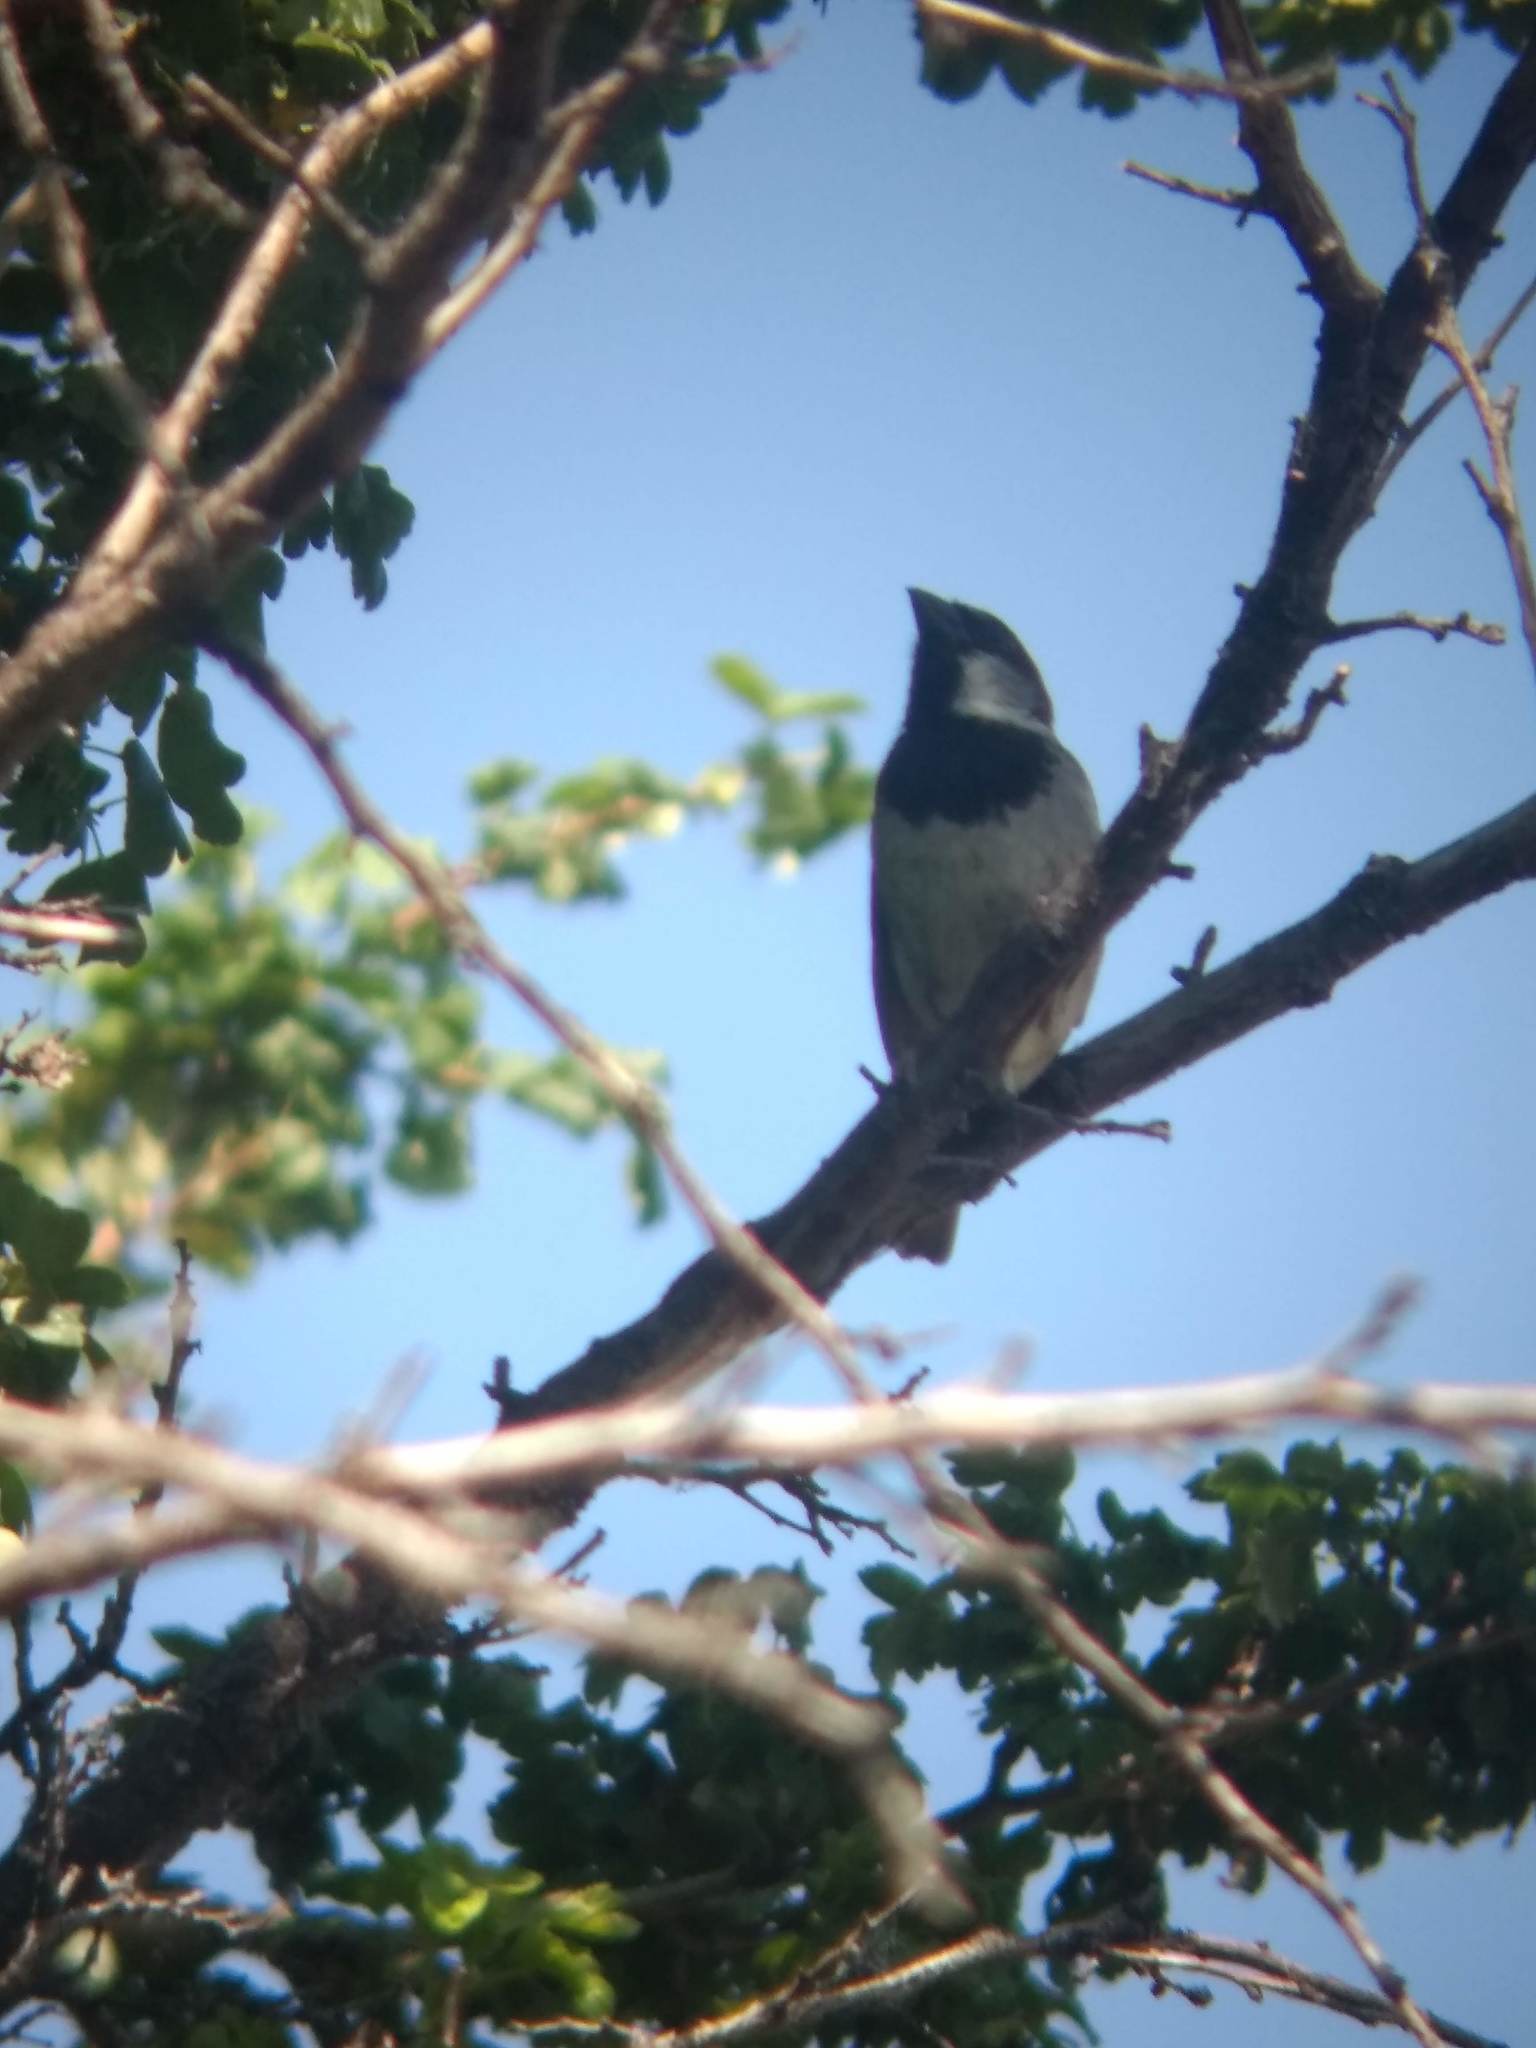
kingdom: Animalia
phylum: Chordata
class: Aves
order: Passeriformes
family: Passeridae
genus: Passer
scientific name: Passer domesticus
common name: House sparrow
